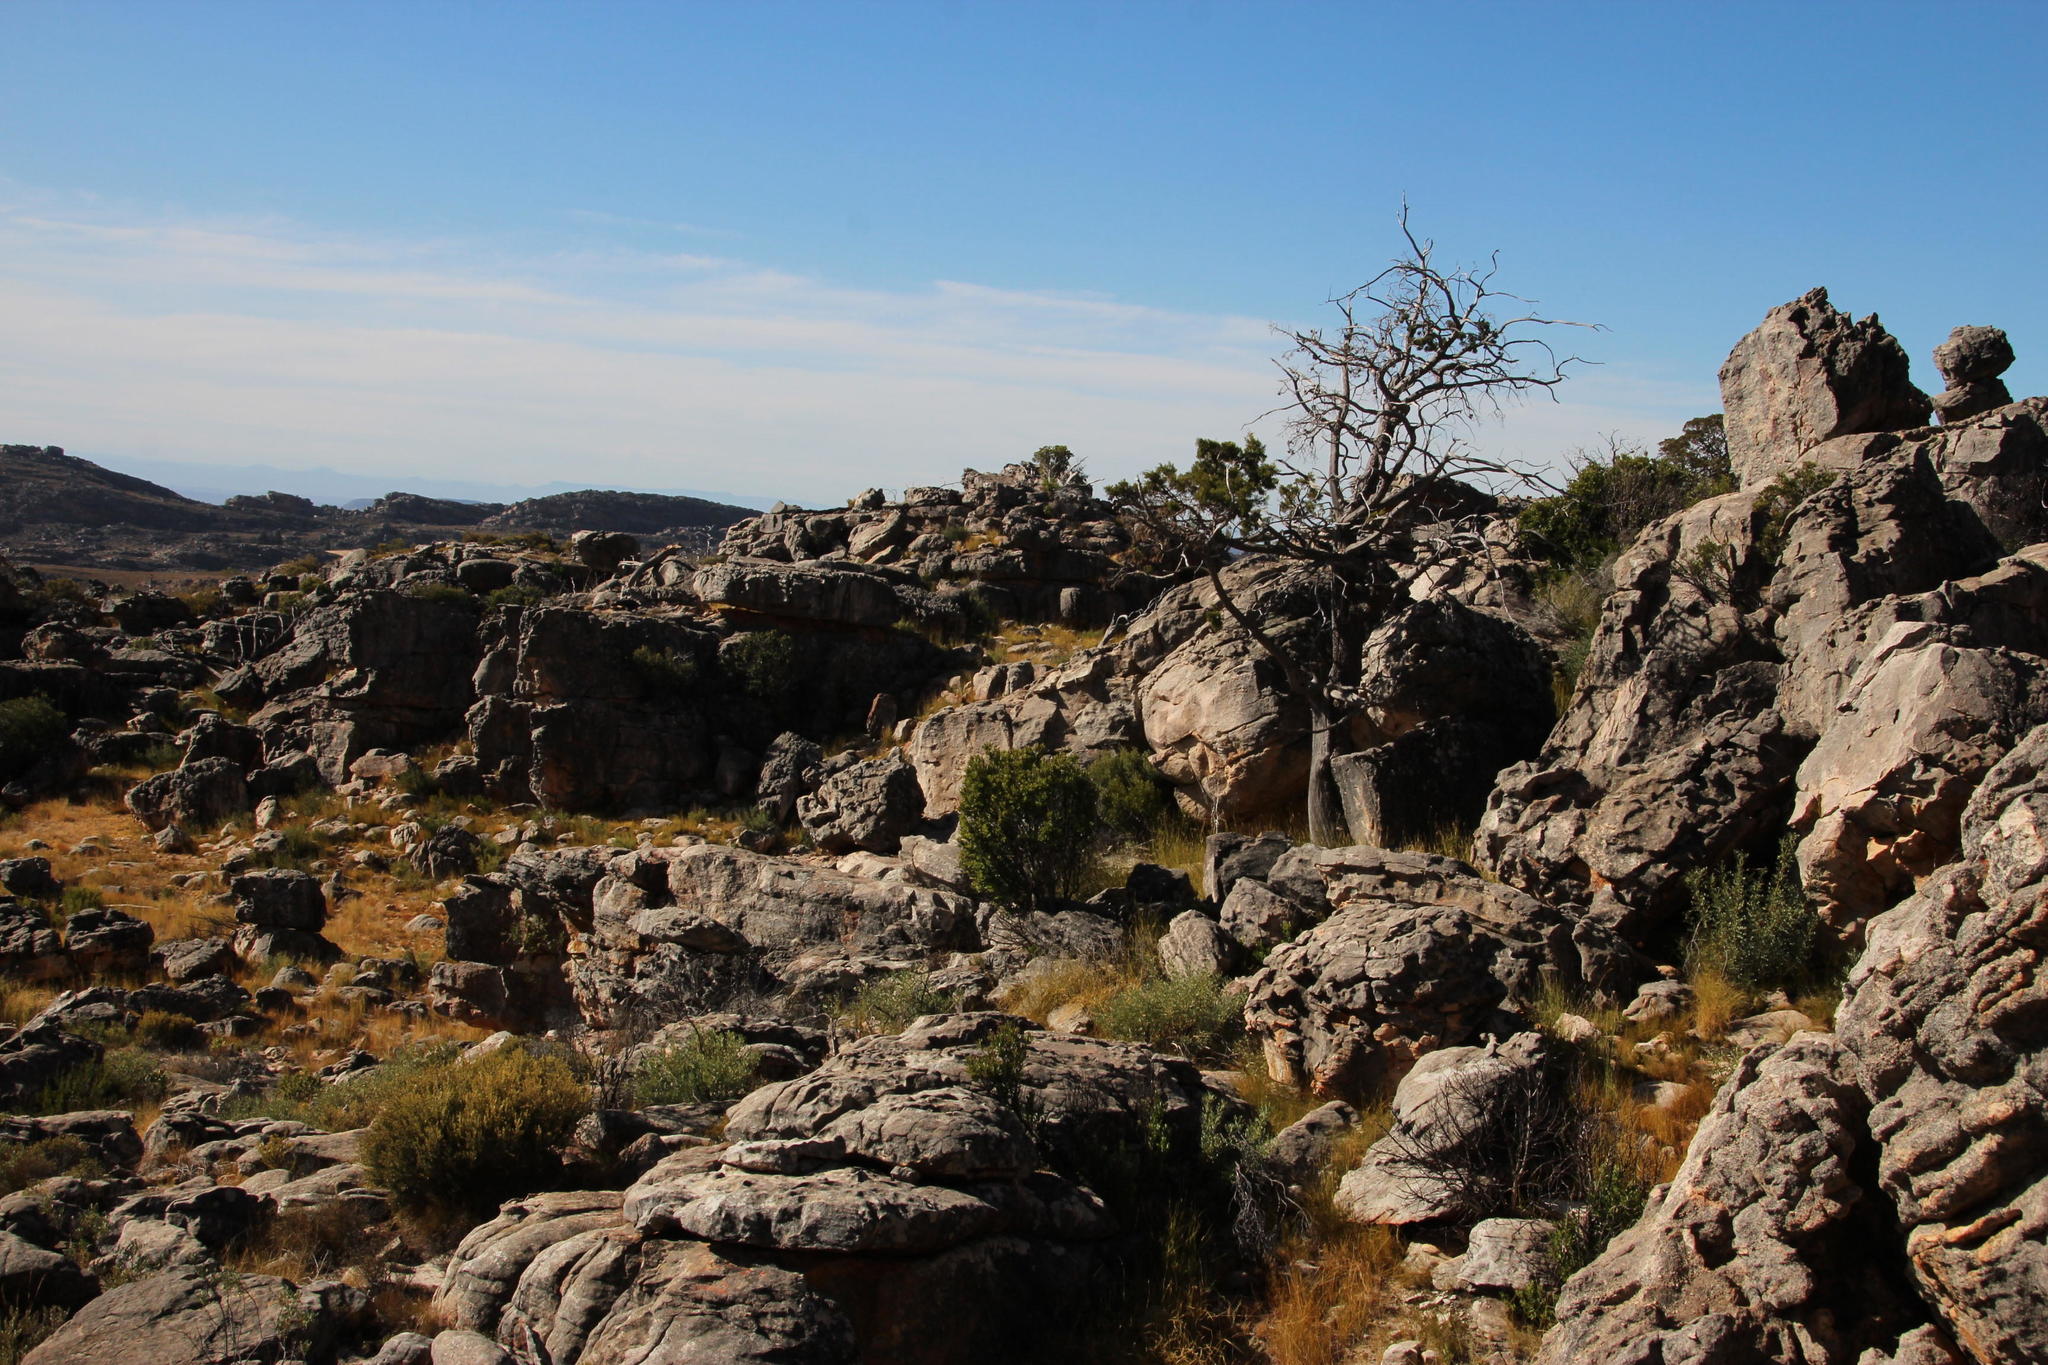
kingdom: Plantae
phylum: Tracheophyta
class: Pinopsida
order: Pinales
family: Cupressaceae
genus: Widdringtonia
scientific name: Widdringtonia nodiflora
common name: Cape cypress
